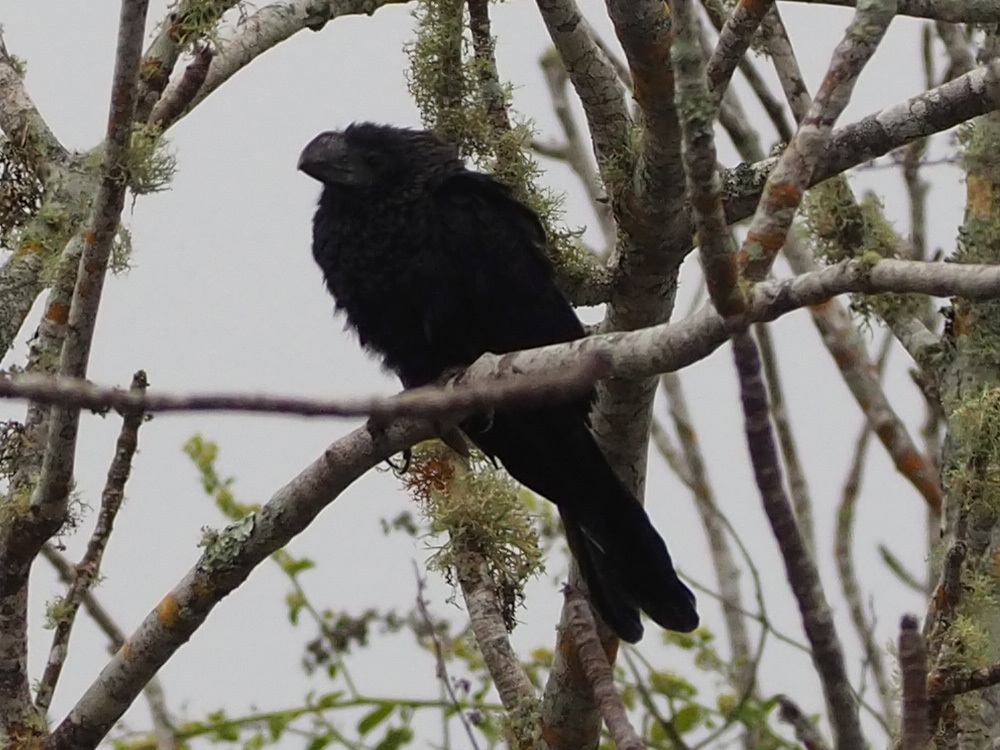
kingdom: Animalia
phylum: Chordata
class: Aves
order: Cuculiformes
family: Cuculidae
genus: Crotophaga
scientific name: Crotophaga ani
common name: Smooth-billed ani
